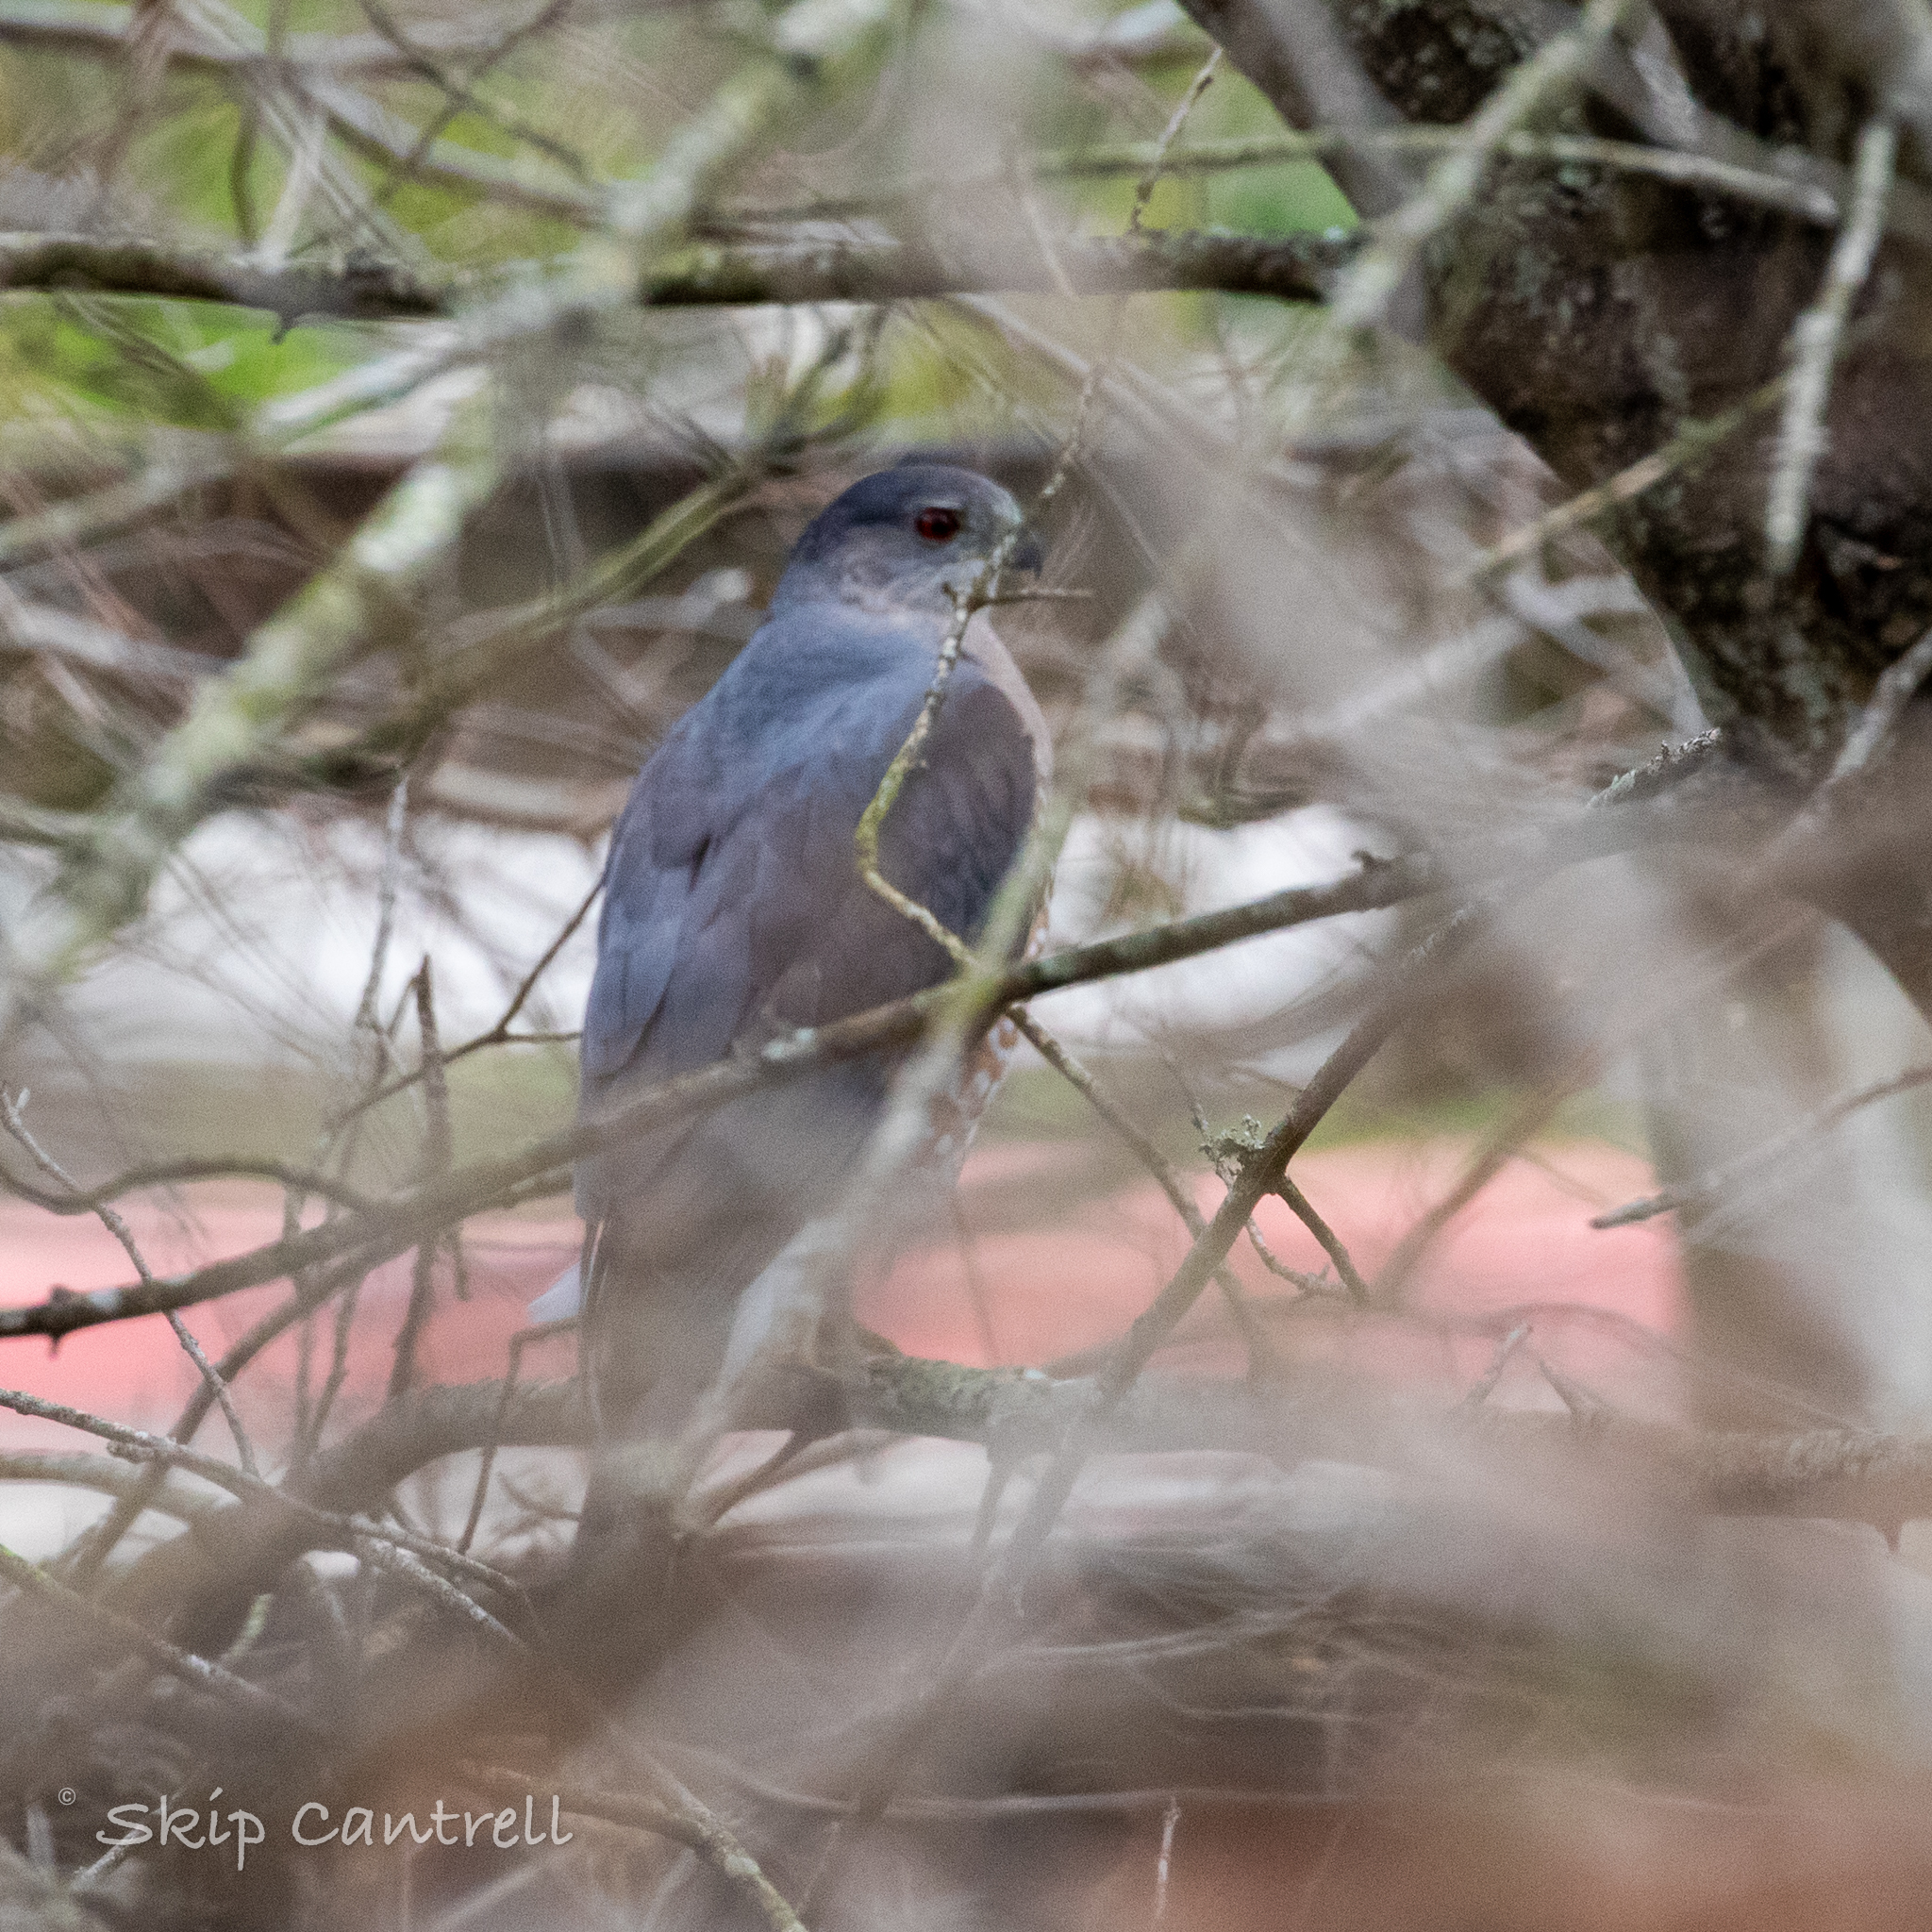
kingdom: Animalia
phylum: Chordata
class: Aves
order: Accipitriformes
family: Accipitridae
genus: Accipiter
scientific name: Accipiter cooperii
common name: Cooper's hawk
